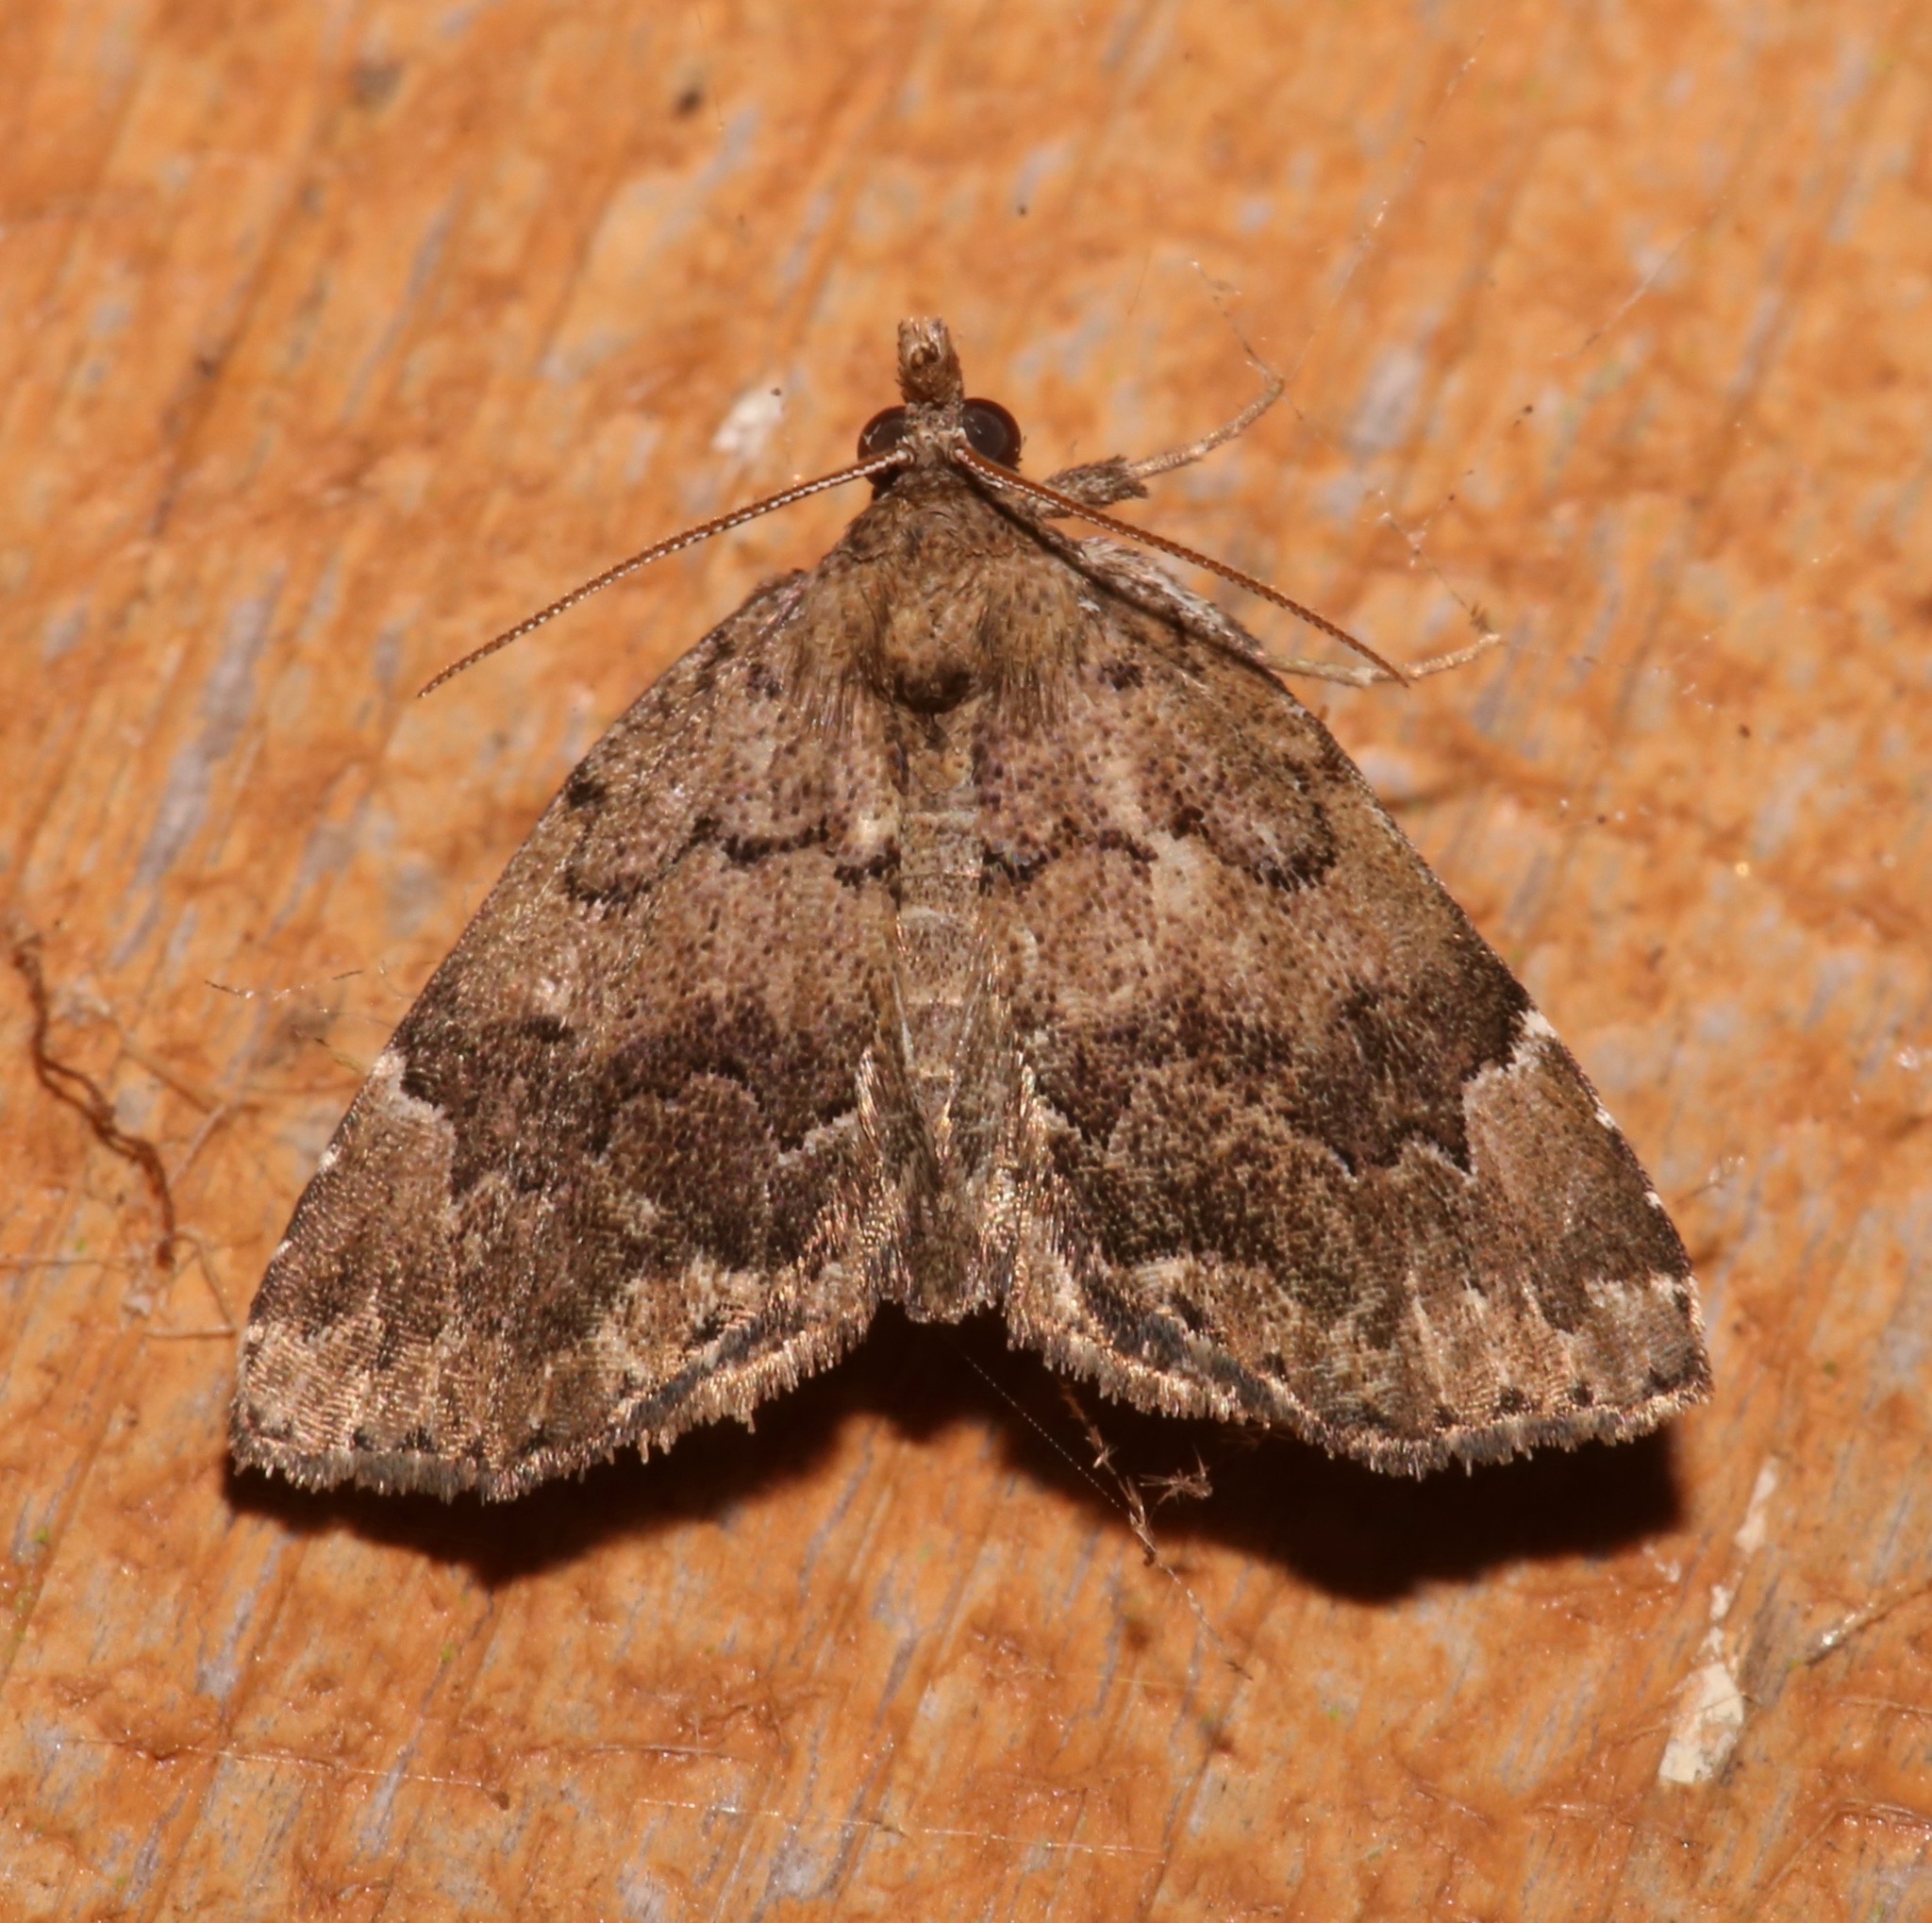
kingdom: Animalia
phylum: Arthropoda
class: Insecta
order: Lepidoptera
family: Erebidae
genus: Cutina
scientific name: Cutina aluticolor
